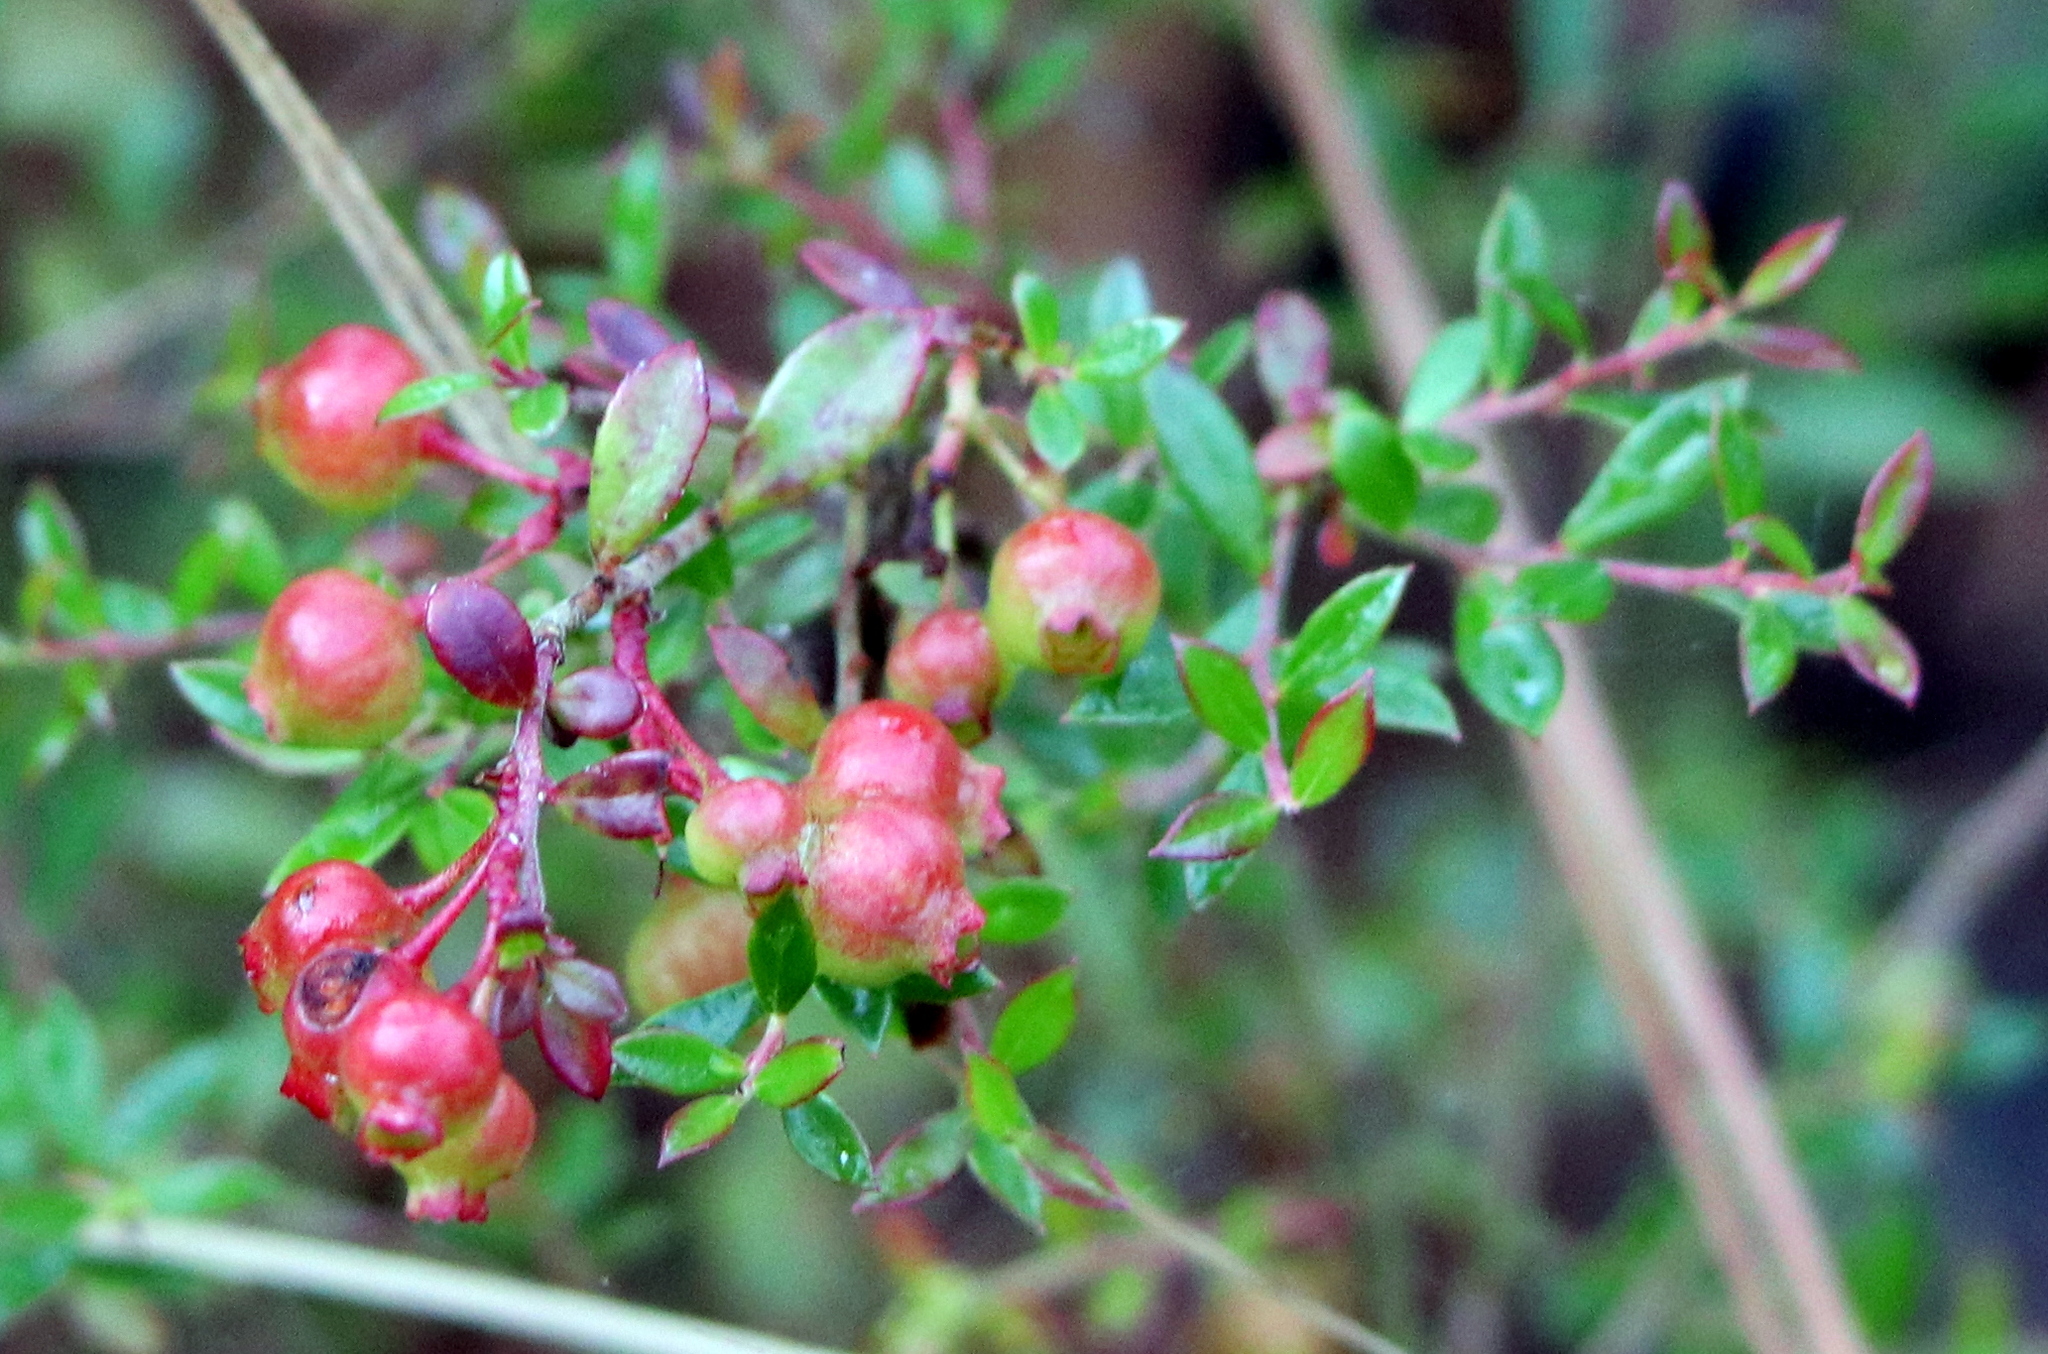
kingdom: Plantae
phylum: Tracheophyta
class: Magnoliopsida
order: Ericales
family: Ericaceae
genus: Vaccinium
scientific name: Vaccinium darrowii
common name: Darrow's blueberry
